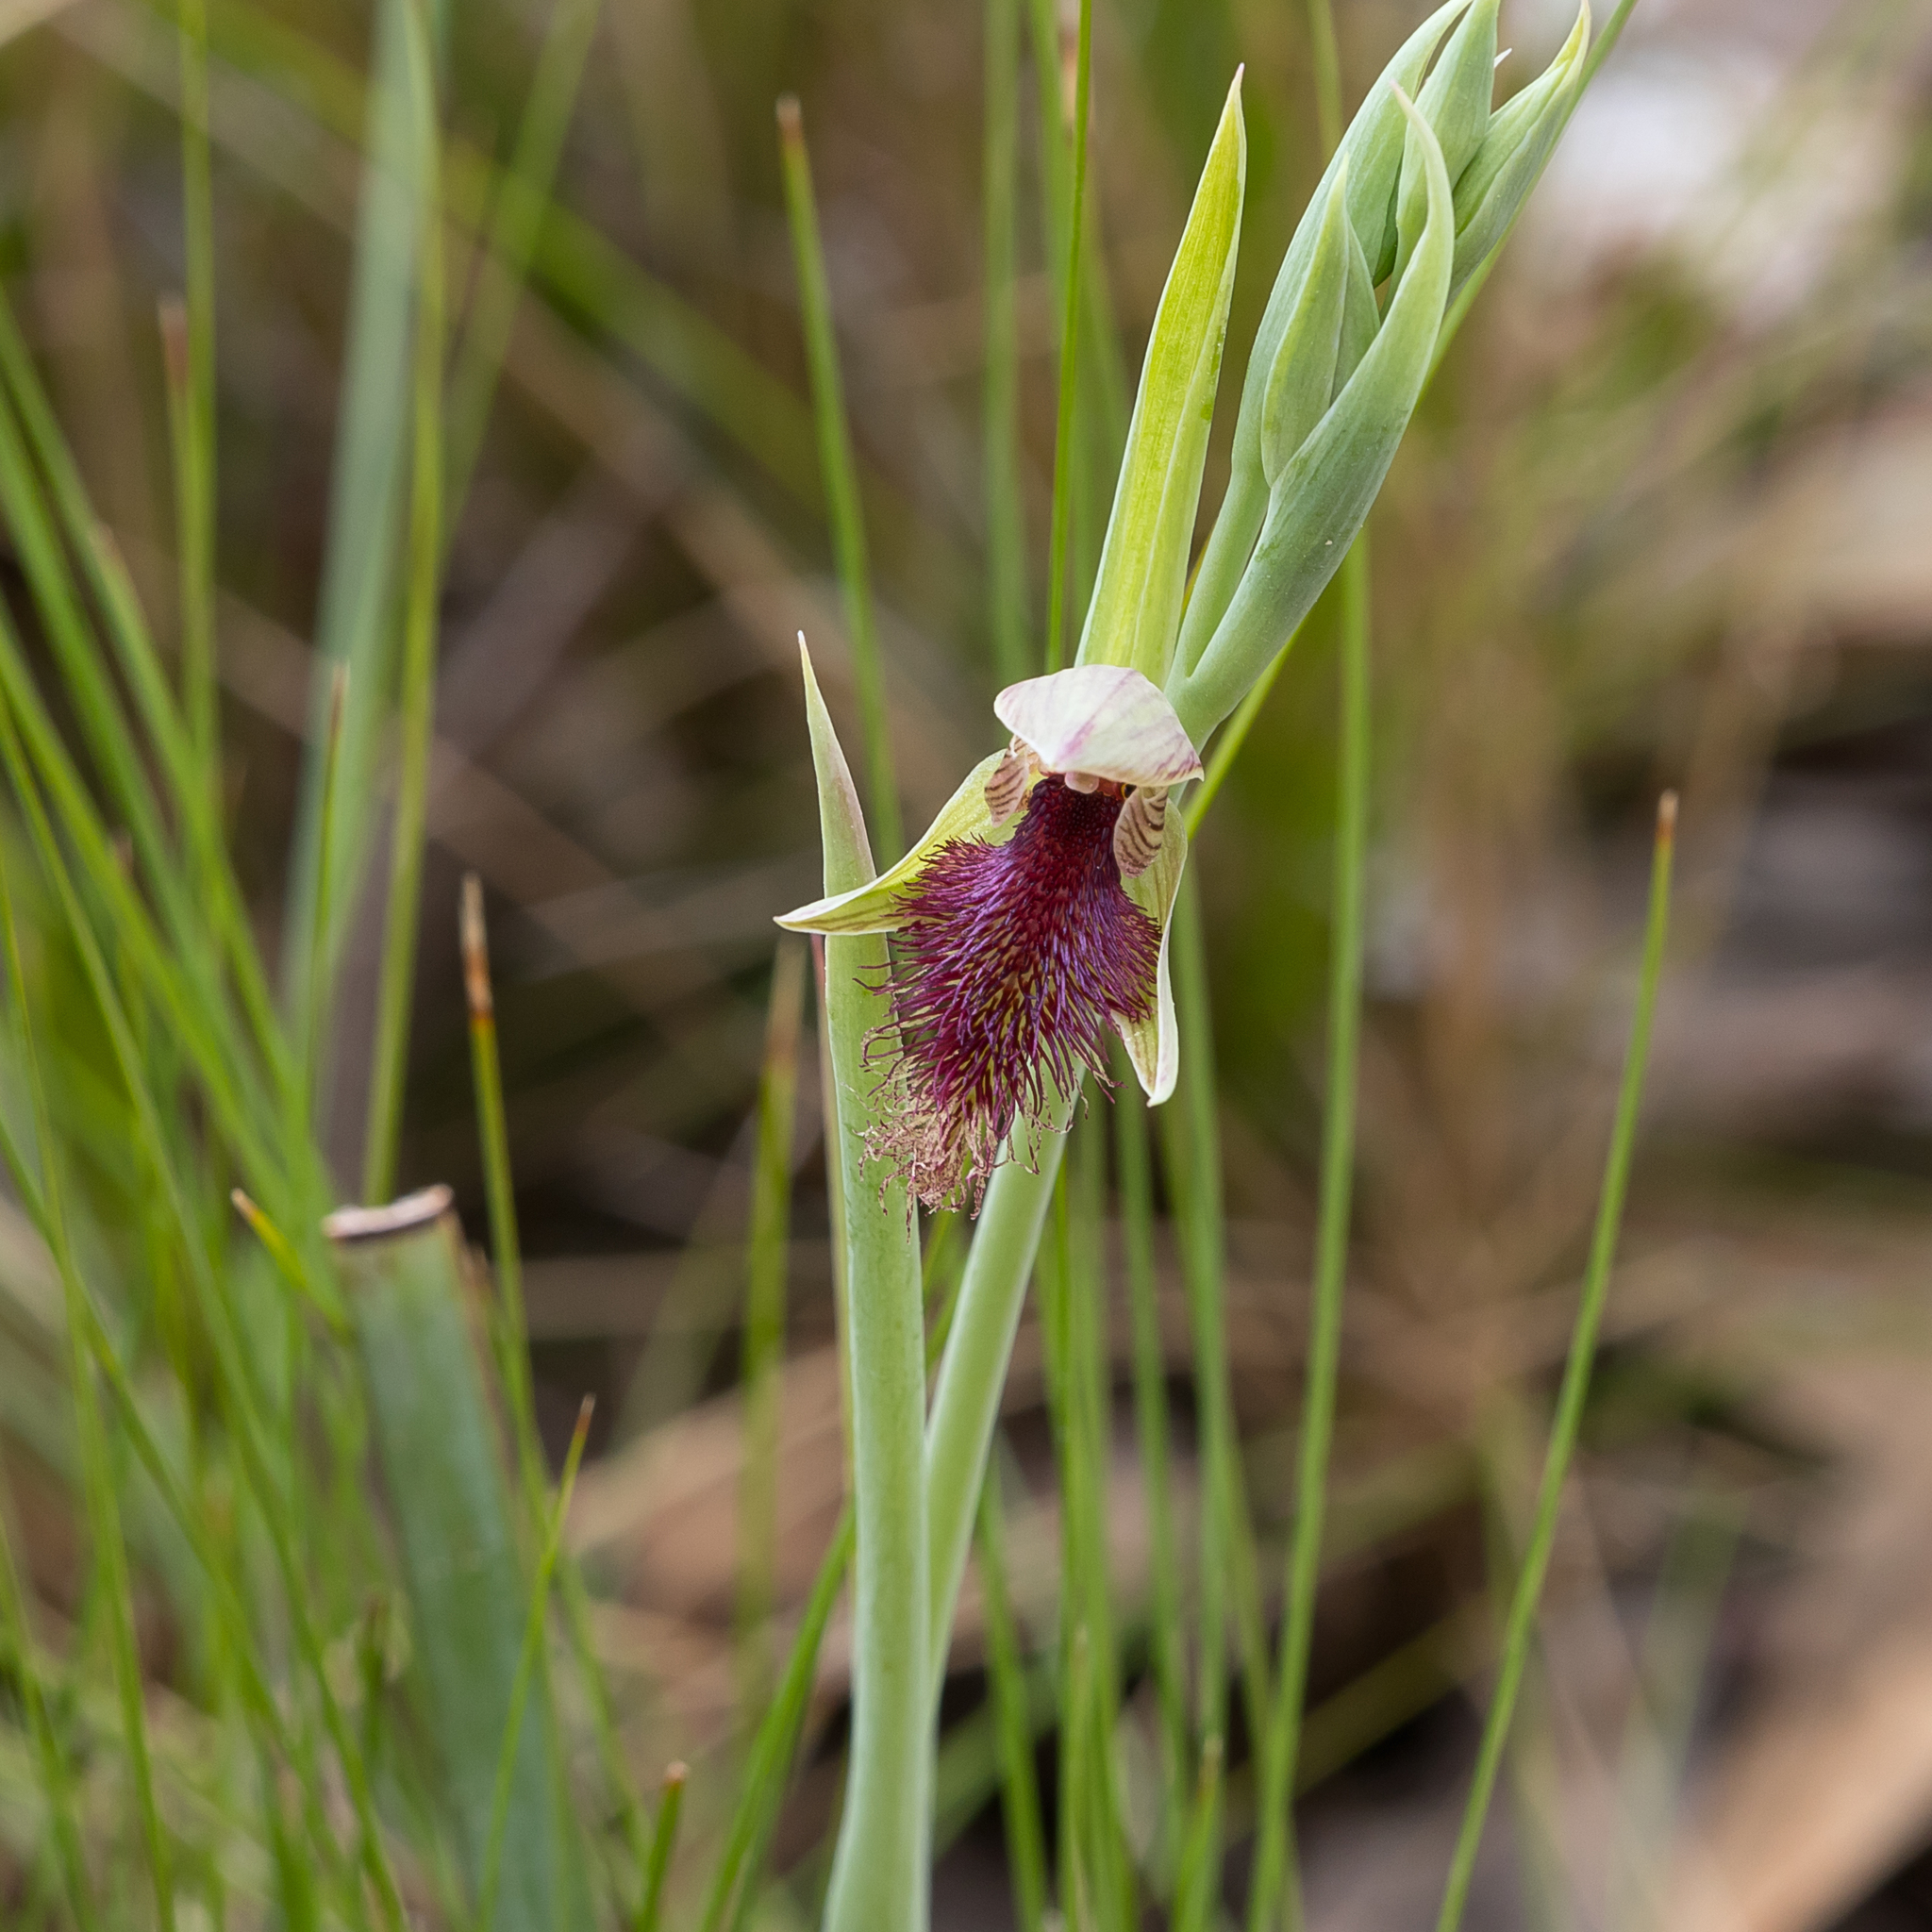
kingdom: Plantae
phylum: Tracheophyta
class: Liliopsida
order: Asparagales
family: Orchidaceae
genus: Calochilus
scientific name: Calochilus robertsonii
